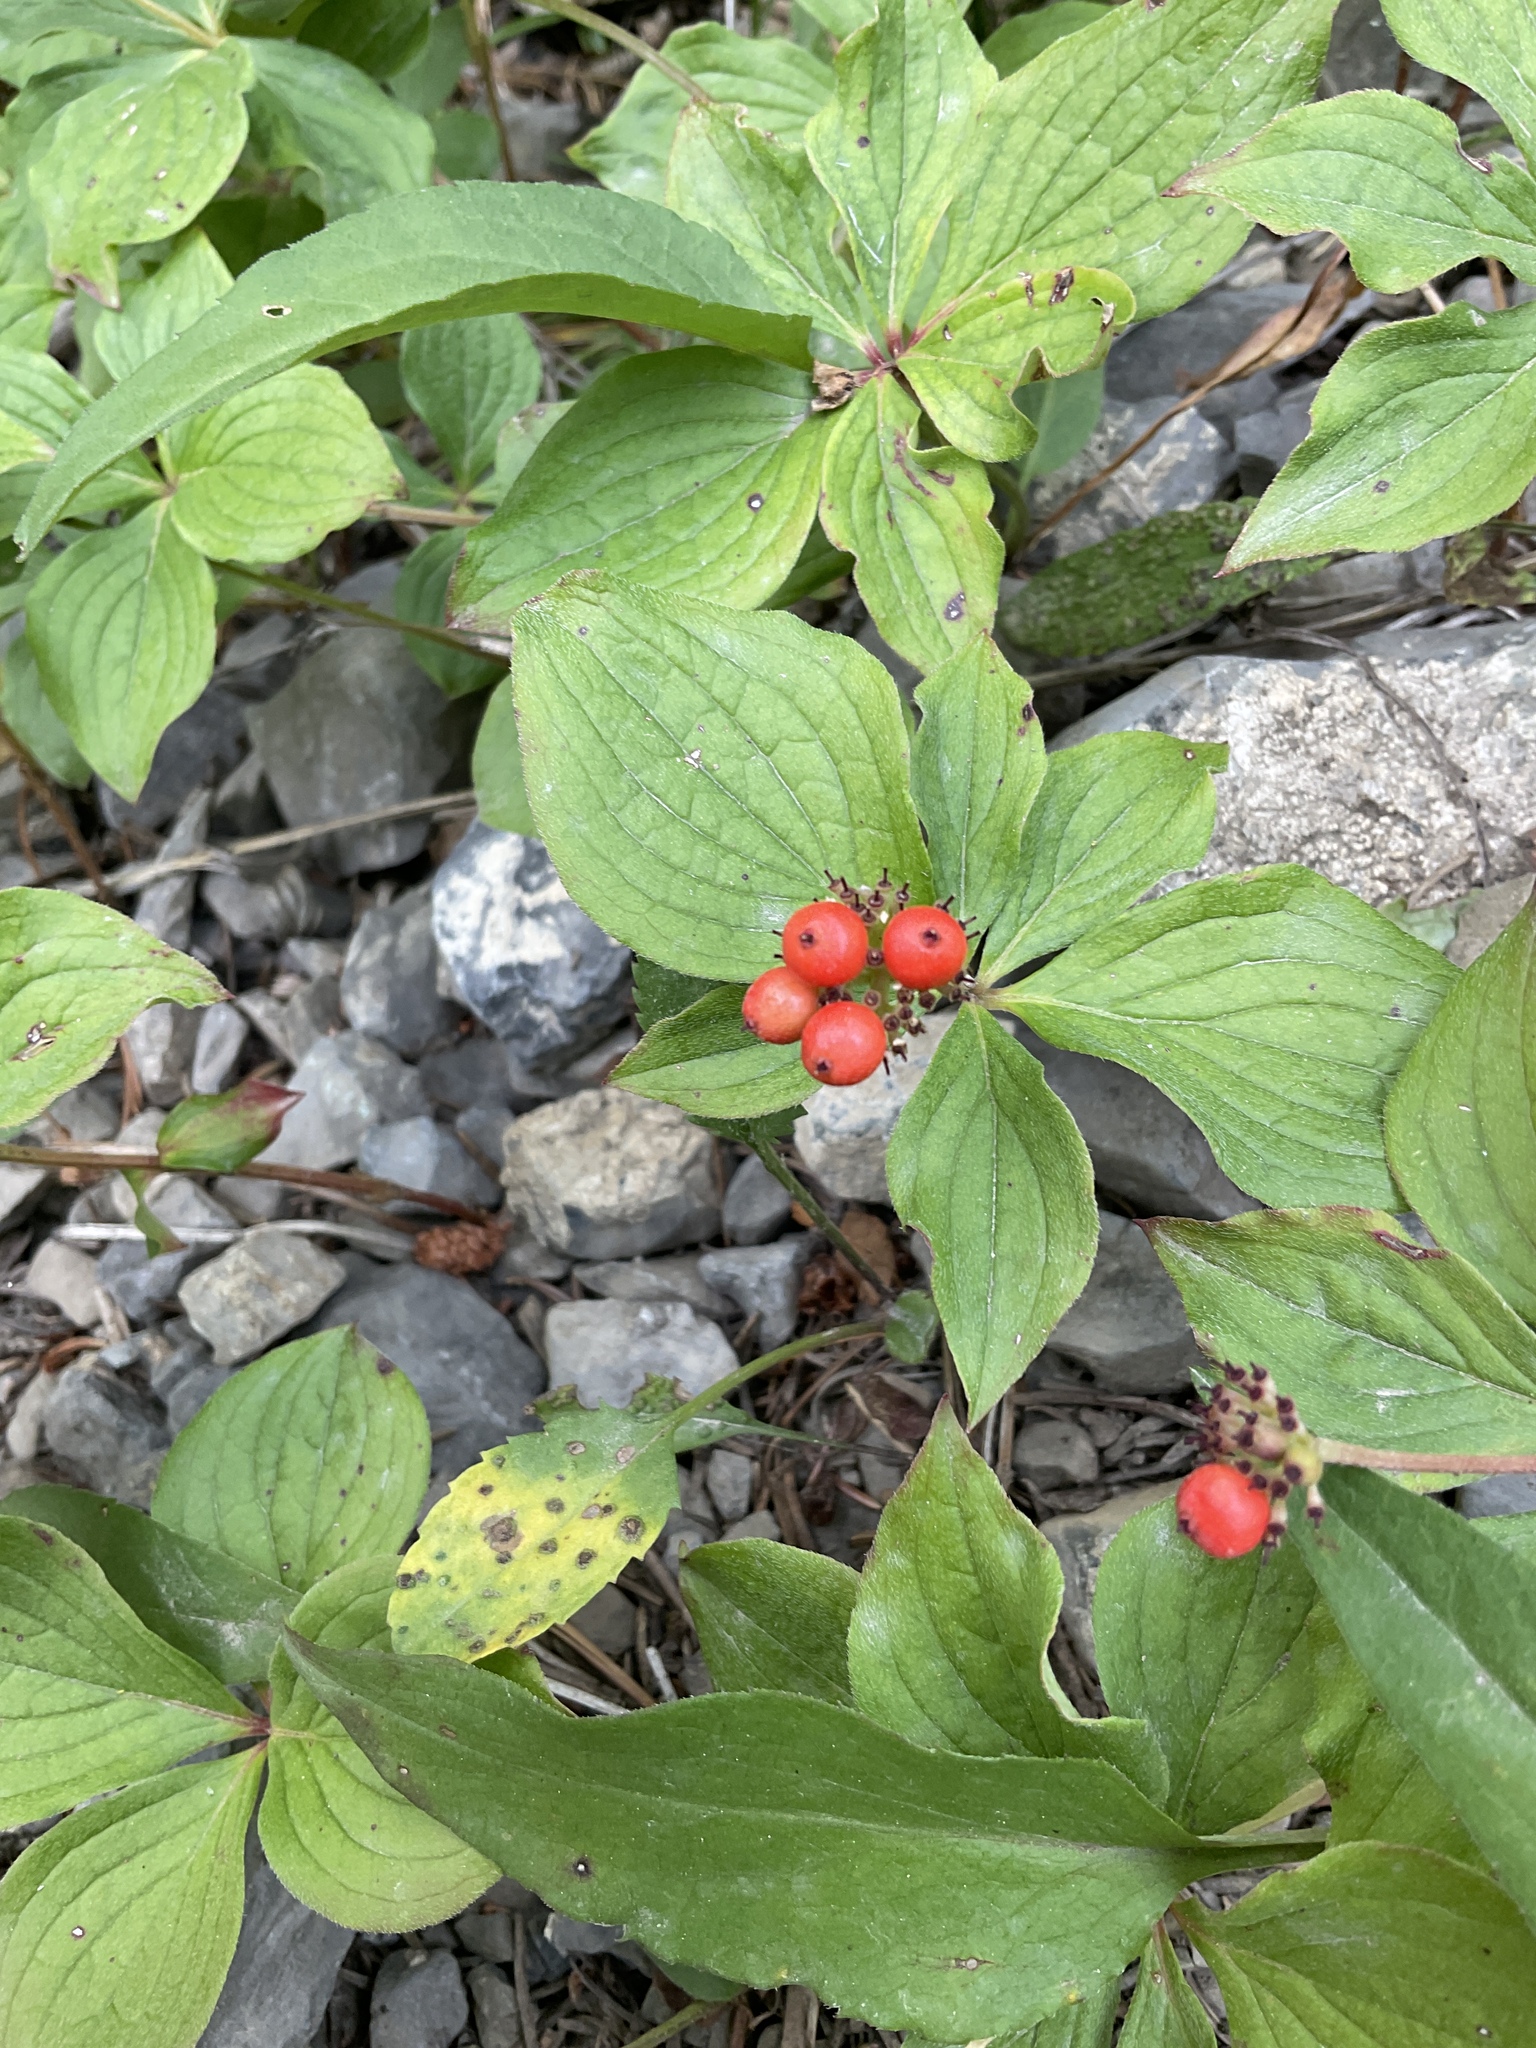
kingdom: Plantae
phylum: Tracheophyta
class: Magnoliopsida
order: Cornales
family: Cornaceae
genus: Cornus
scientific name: Cornus unalaschkensis
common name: Alaska bunchberry
